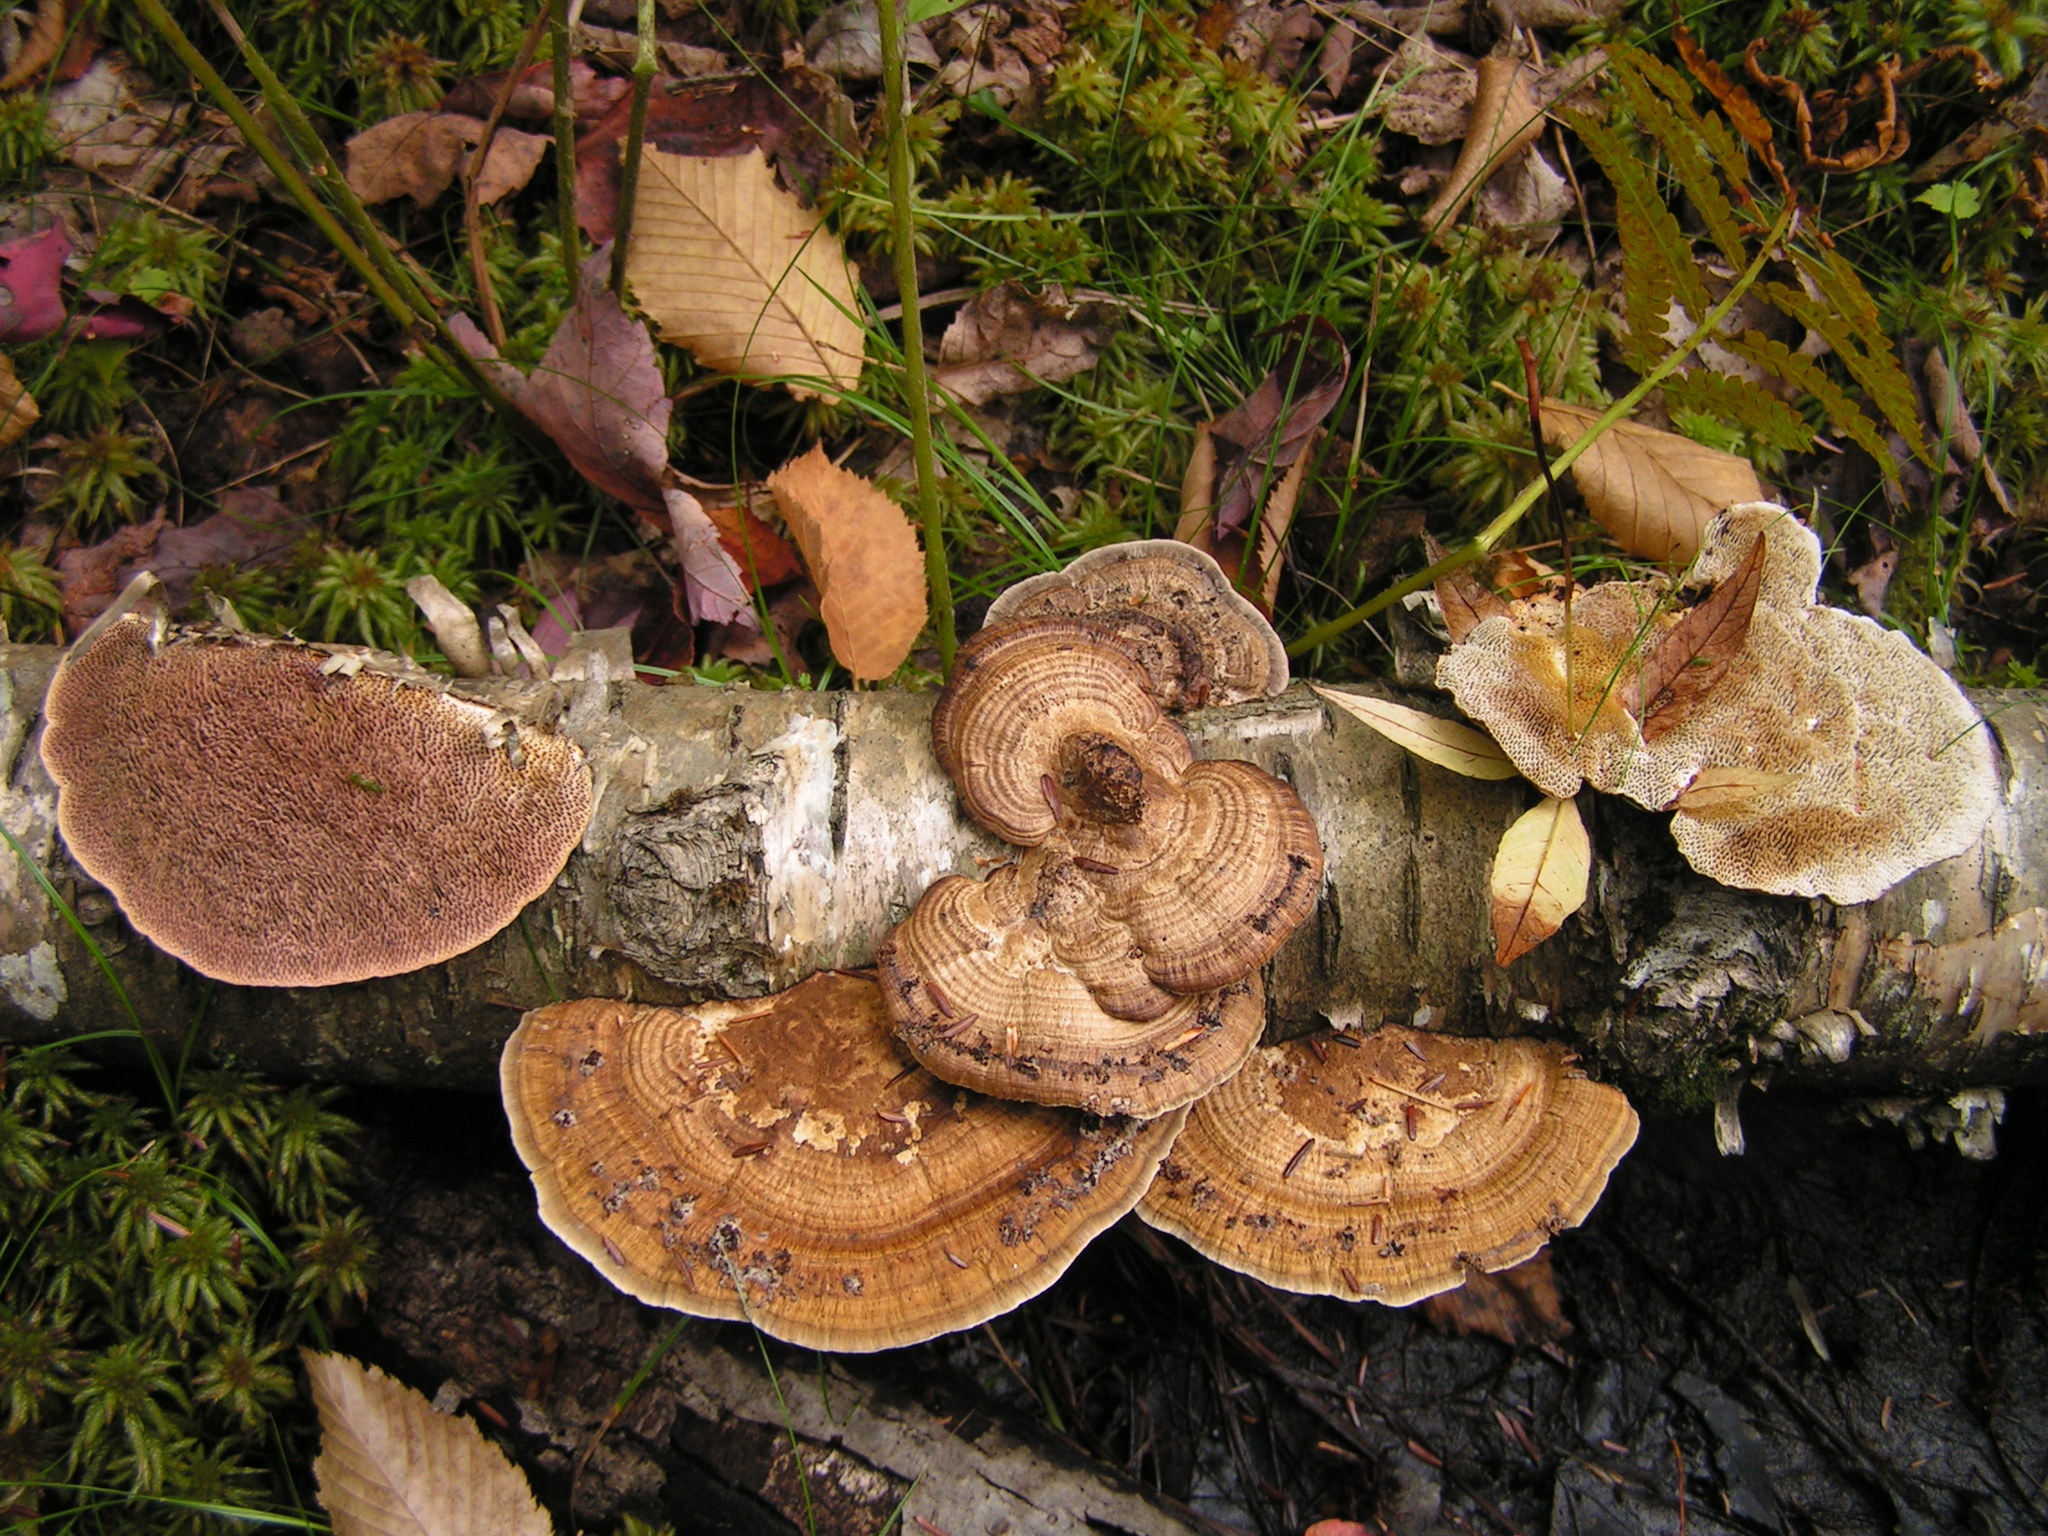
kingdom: Fungi
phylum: Basidiomycota
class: Agaricomycetes
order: Polyporales
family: Polyporaceae
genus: Daedaleopsis
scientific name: Daedaleopsis confragosa
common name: Blushing bracket
